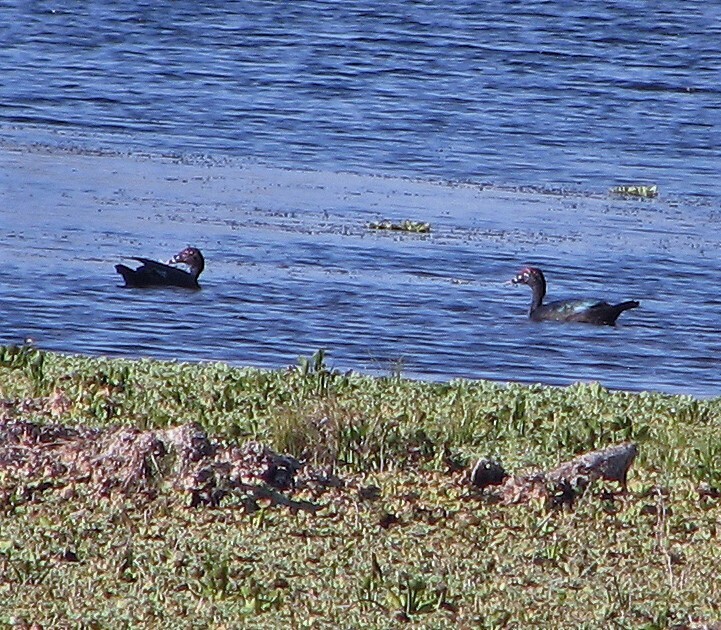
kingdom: Animalia
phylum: Chordata
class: Aves
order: Anseriformes
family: Anatidae
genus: Cairina
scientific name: Cairina moschata
